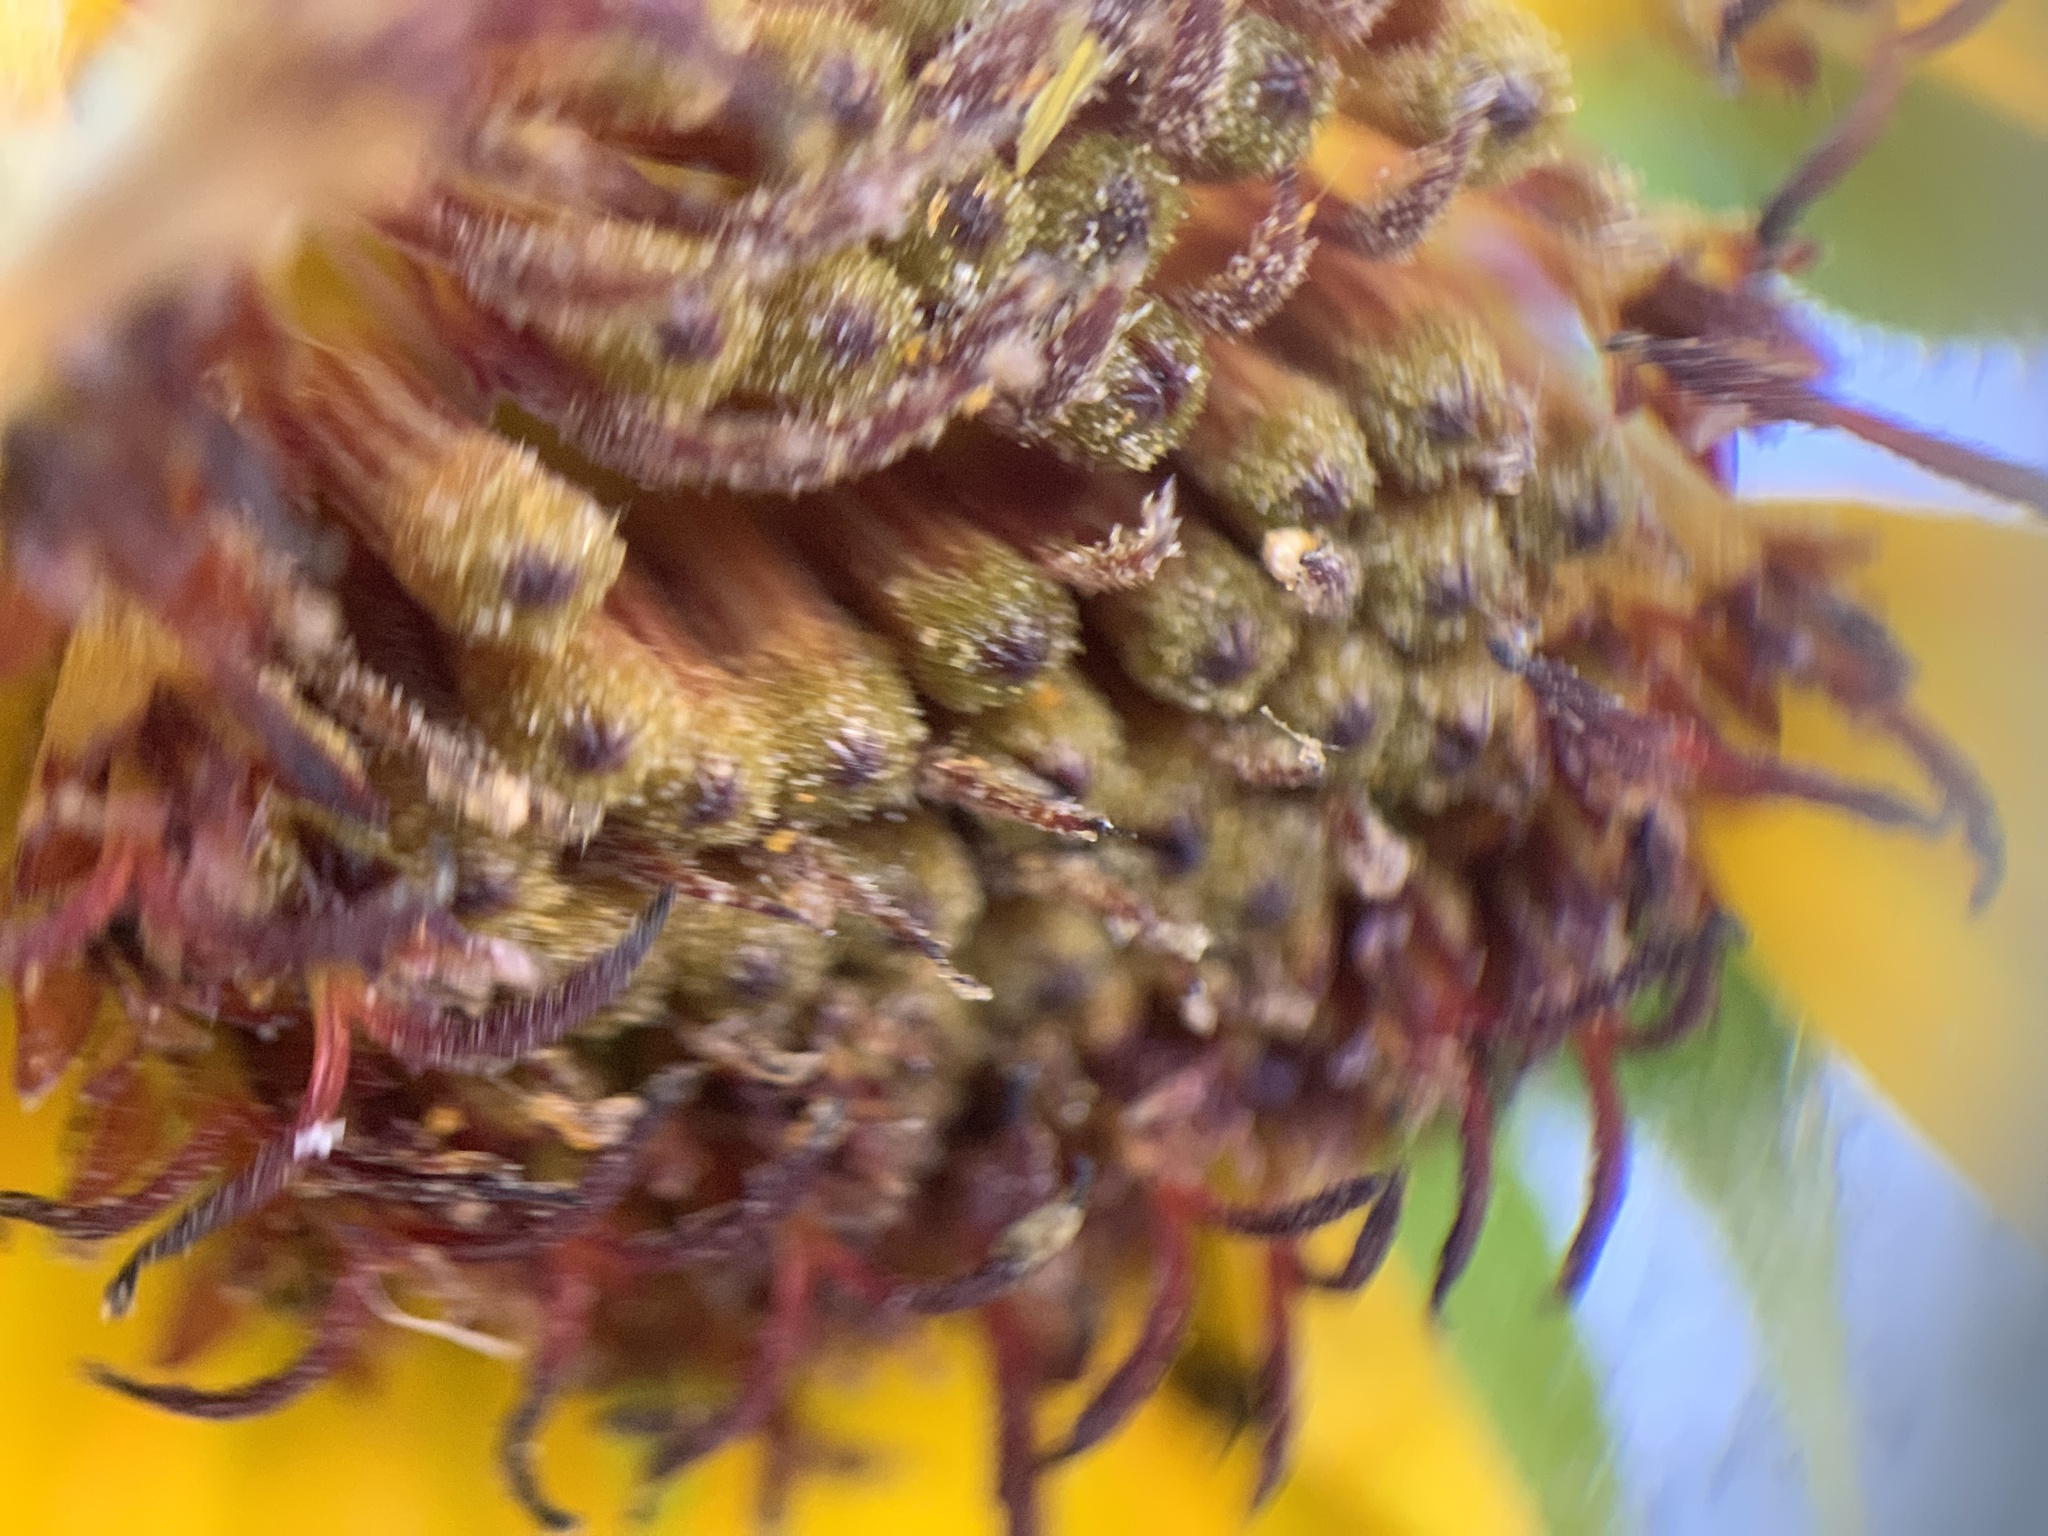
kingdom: Plantae
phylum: Tracheophyta
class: Magnoliopsida
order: Asterales
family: Asteraceae
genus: Helianthus
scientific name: Helianthus annuus
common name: Sunflower
